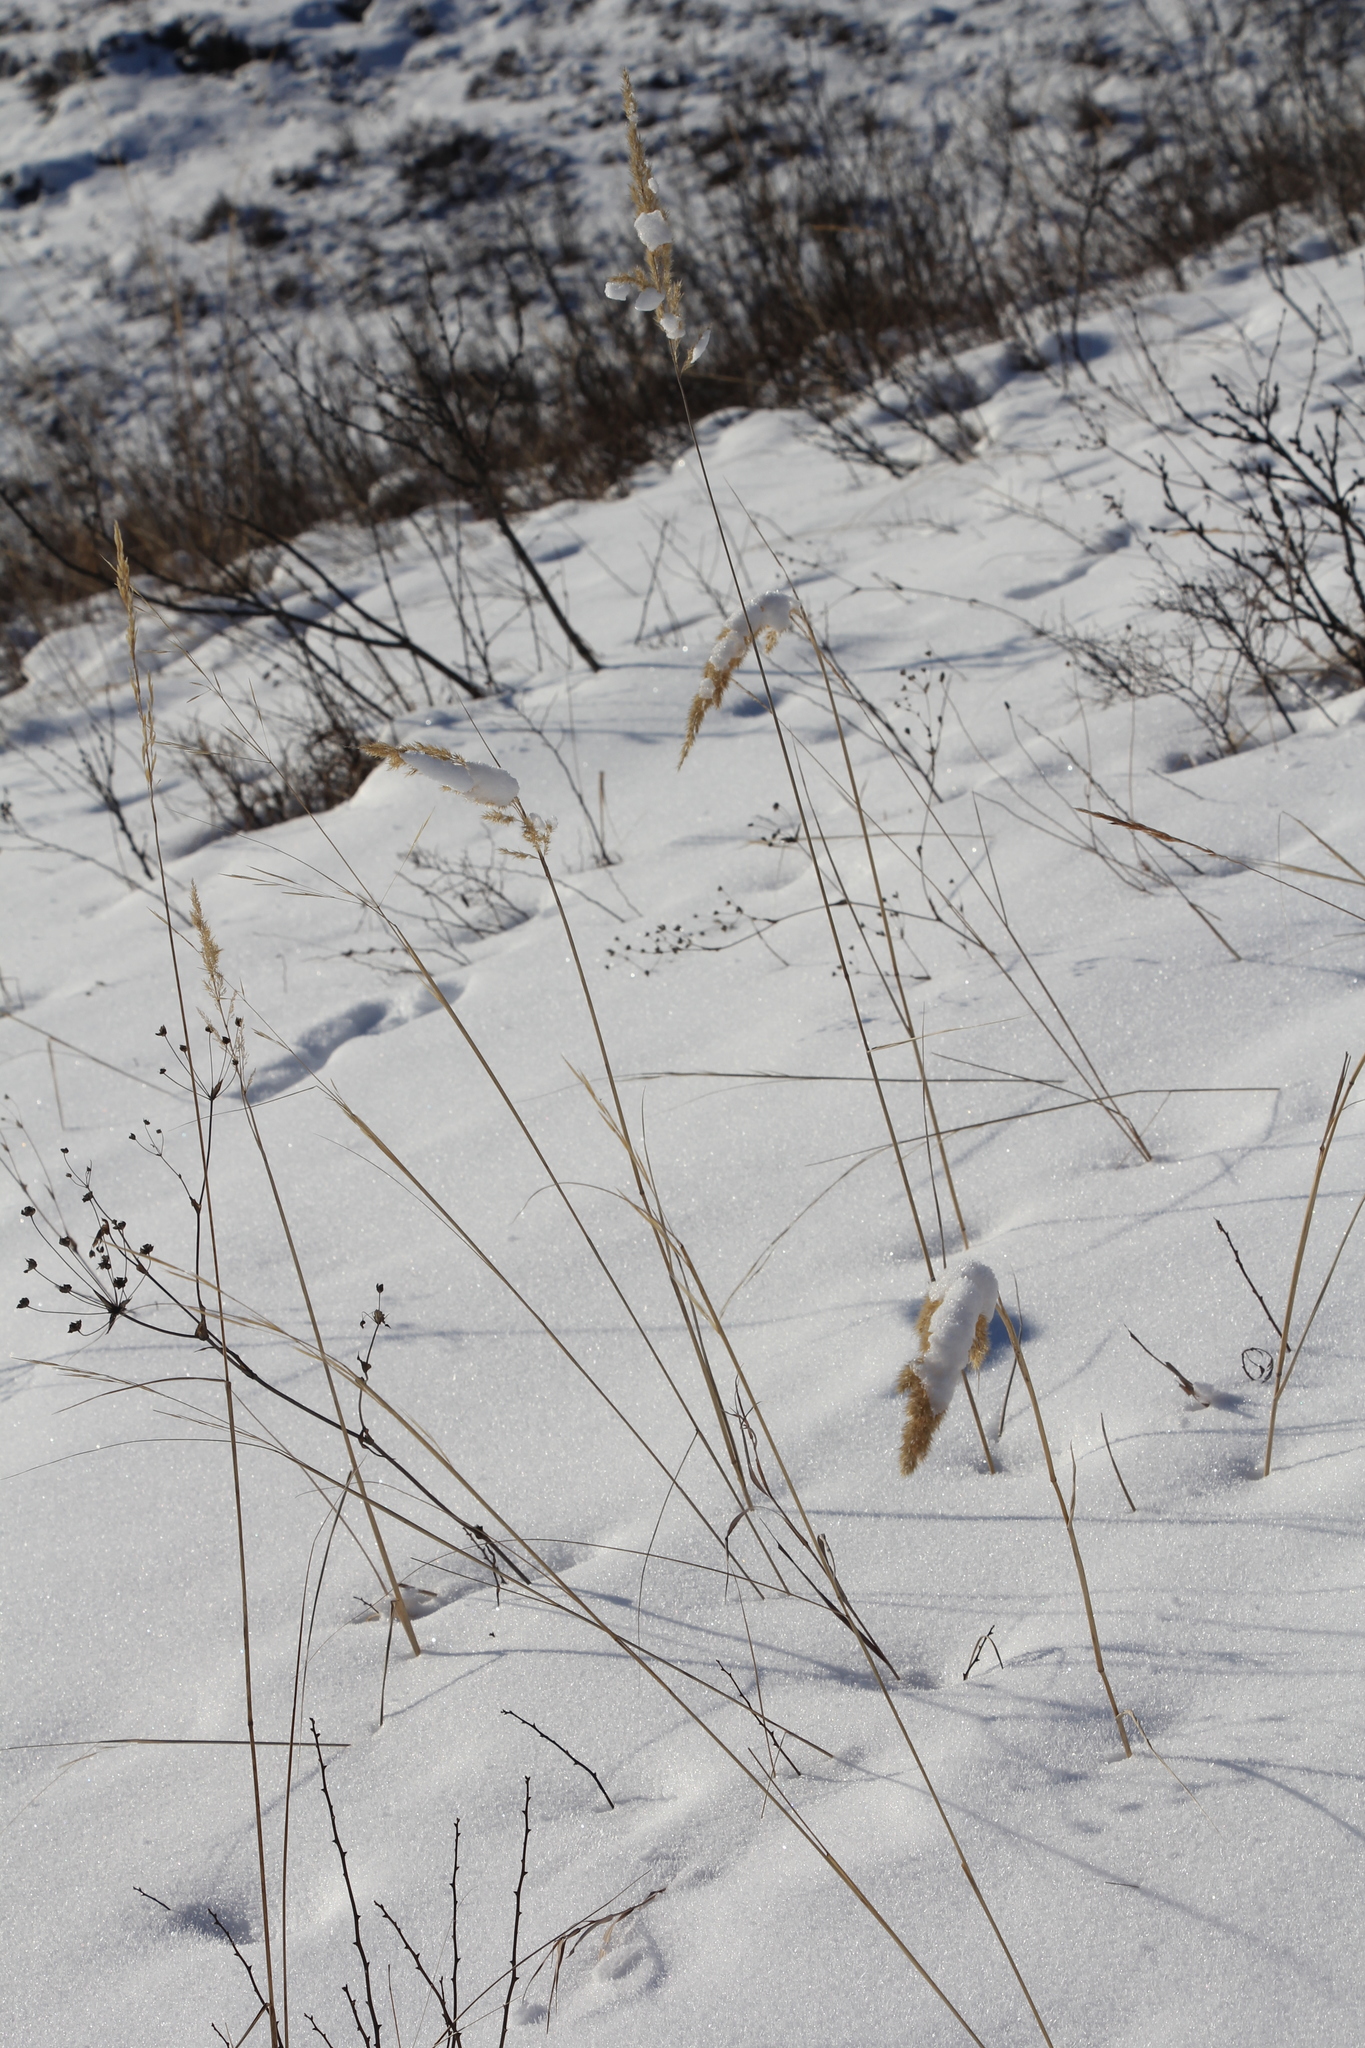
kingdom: Plantae
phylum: Tracheophyta
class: Liliopsida
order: Poales
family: Poaceae
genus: Calamagrostis
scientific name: Calamagrostis epigejos
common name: Wood small-reed
